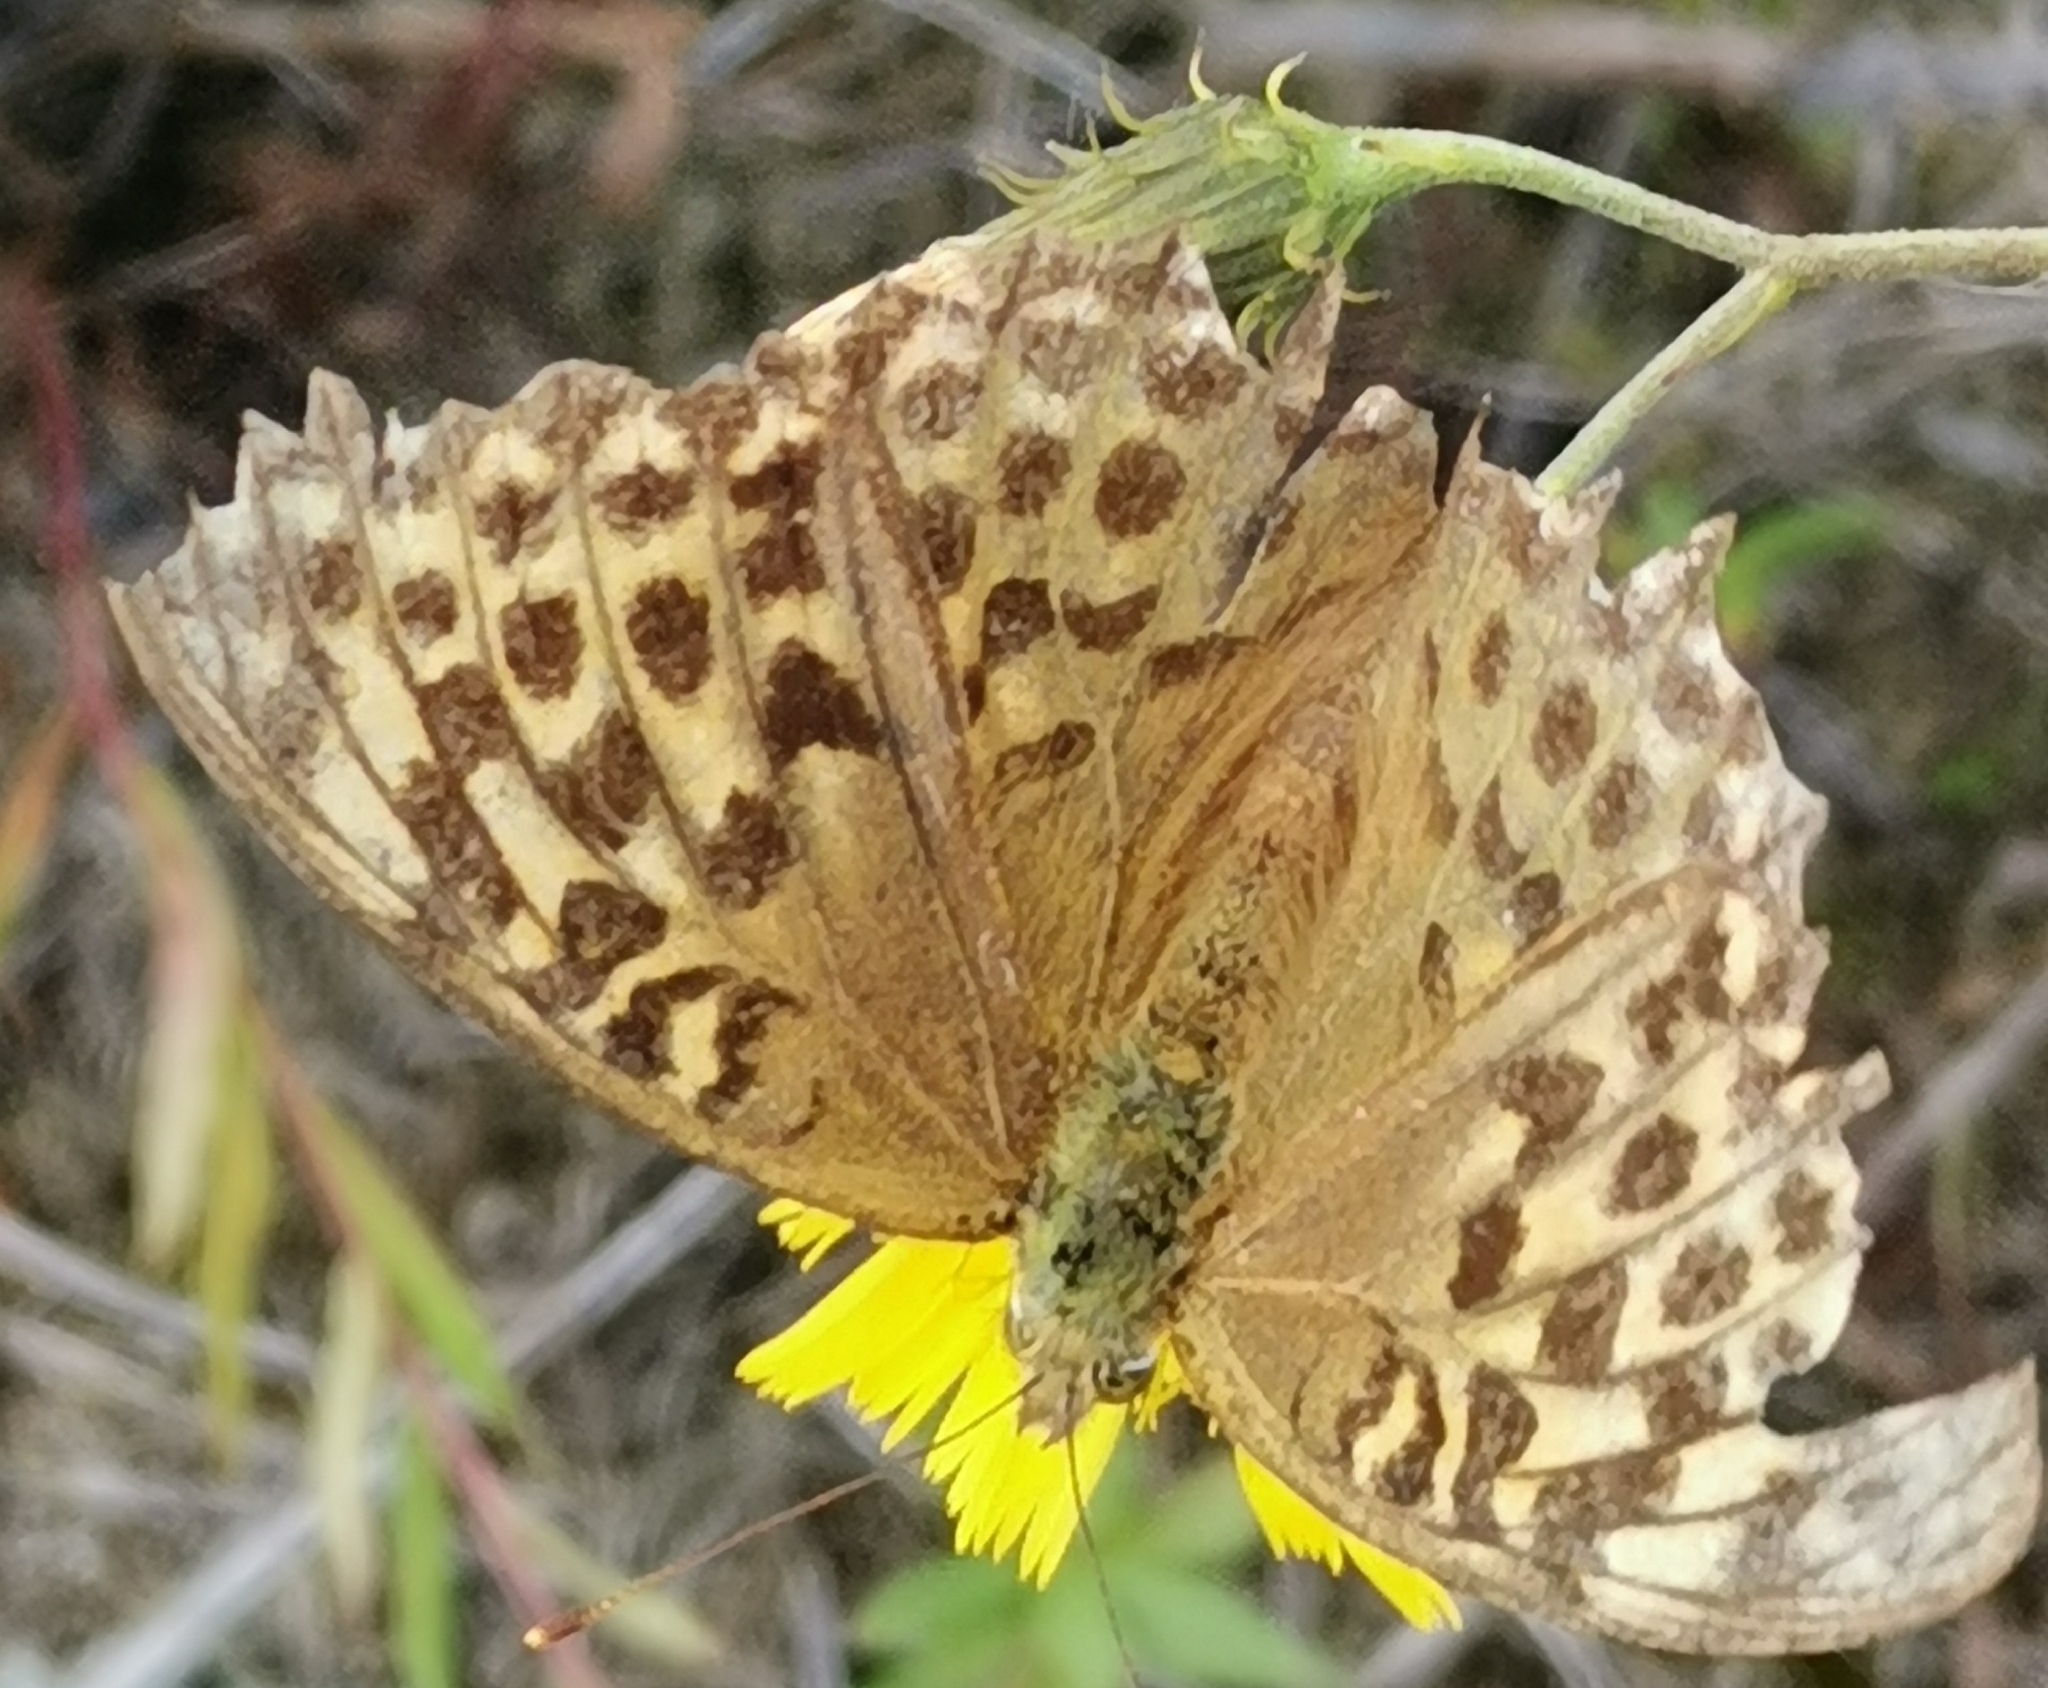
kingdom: Animalia
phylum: Arthropoda
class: Insecta
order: Lepidoptera
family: Nymphalidae
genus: Argynnis
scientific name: Argynnis paphia
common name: Silver-washed fritillary
